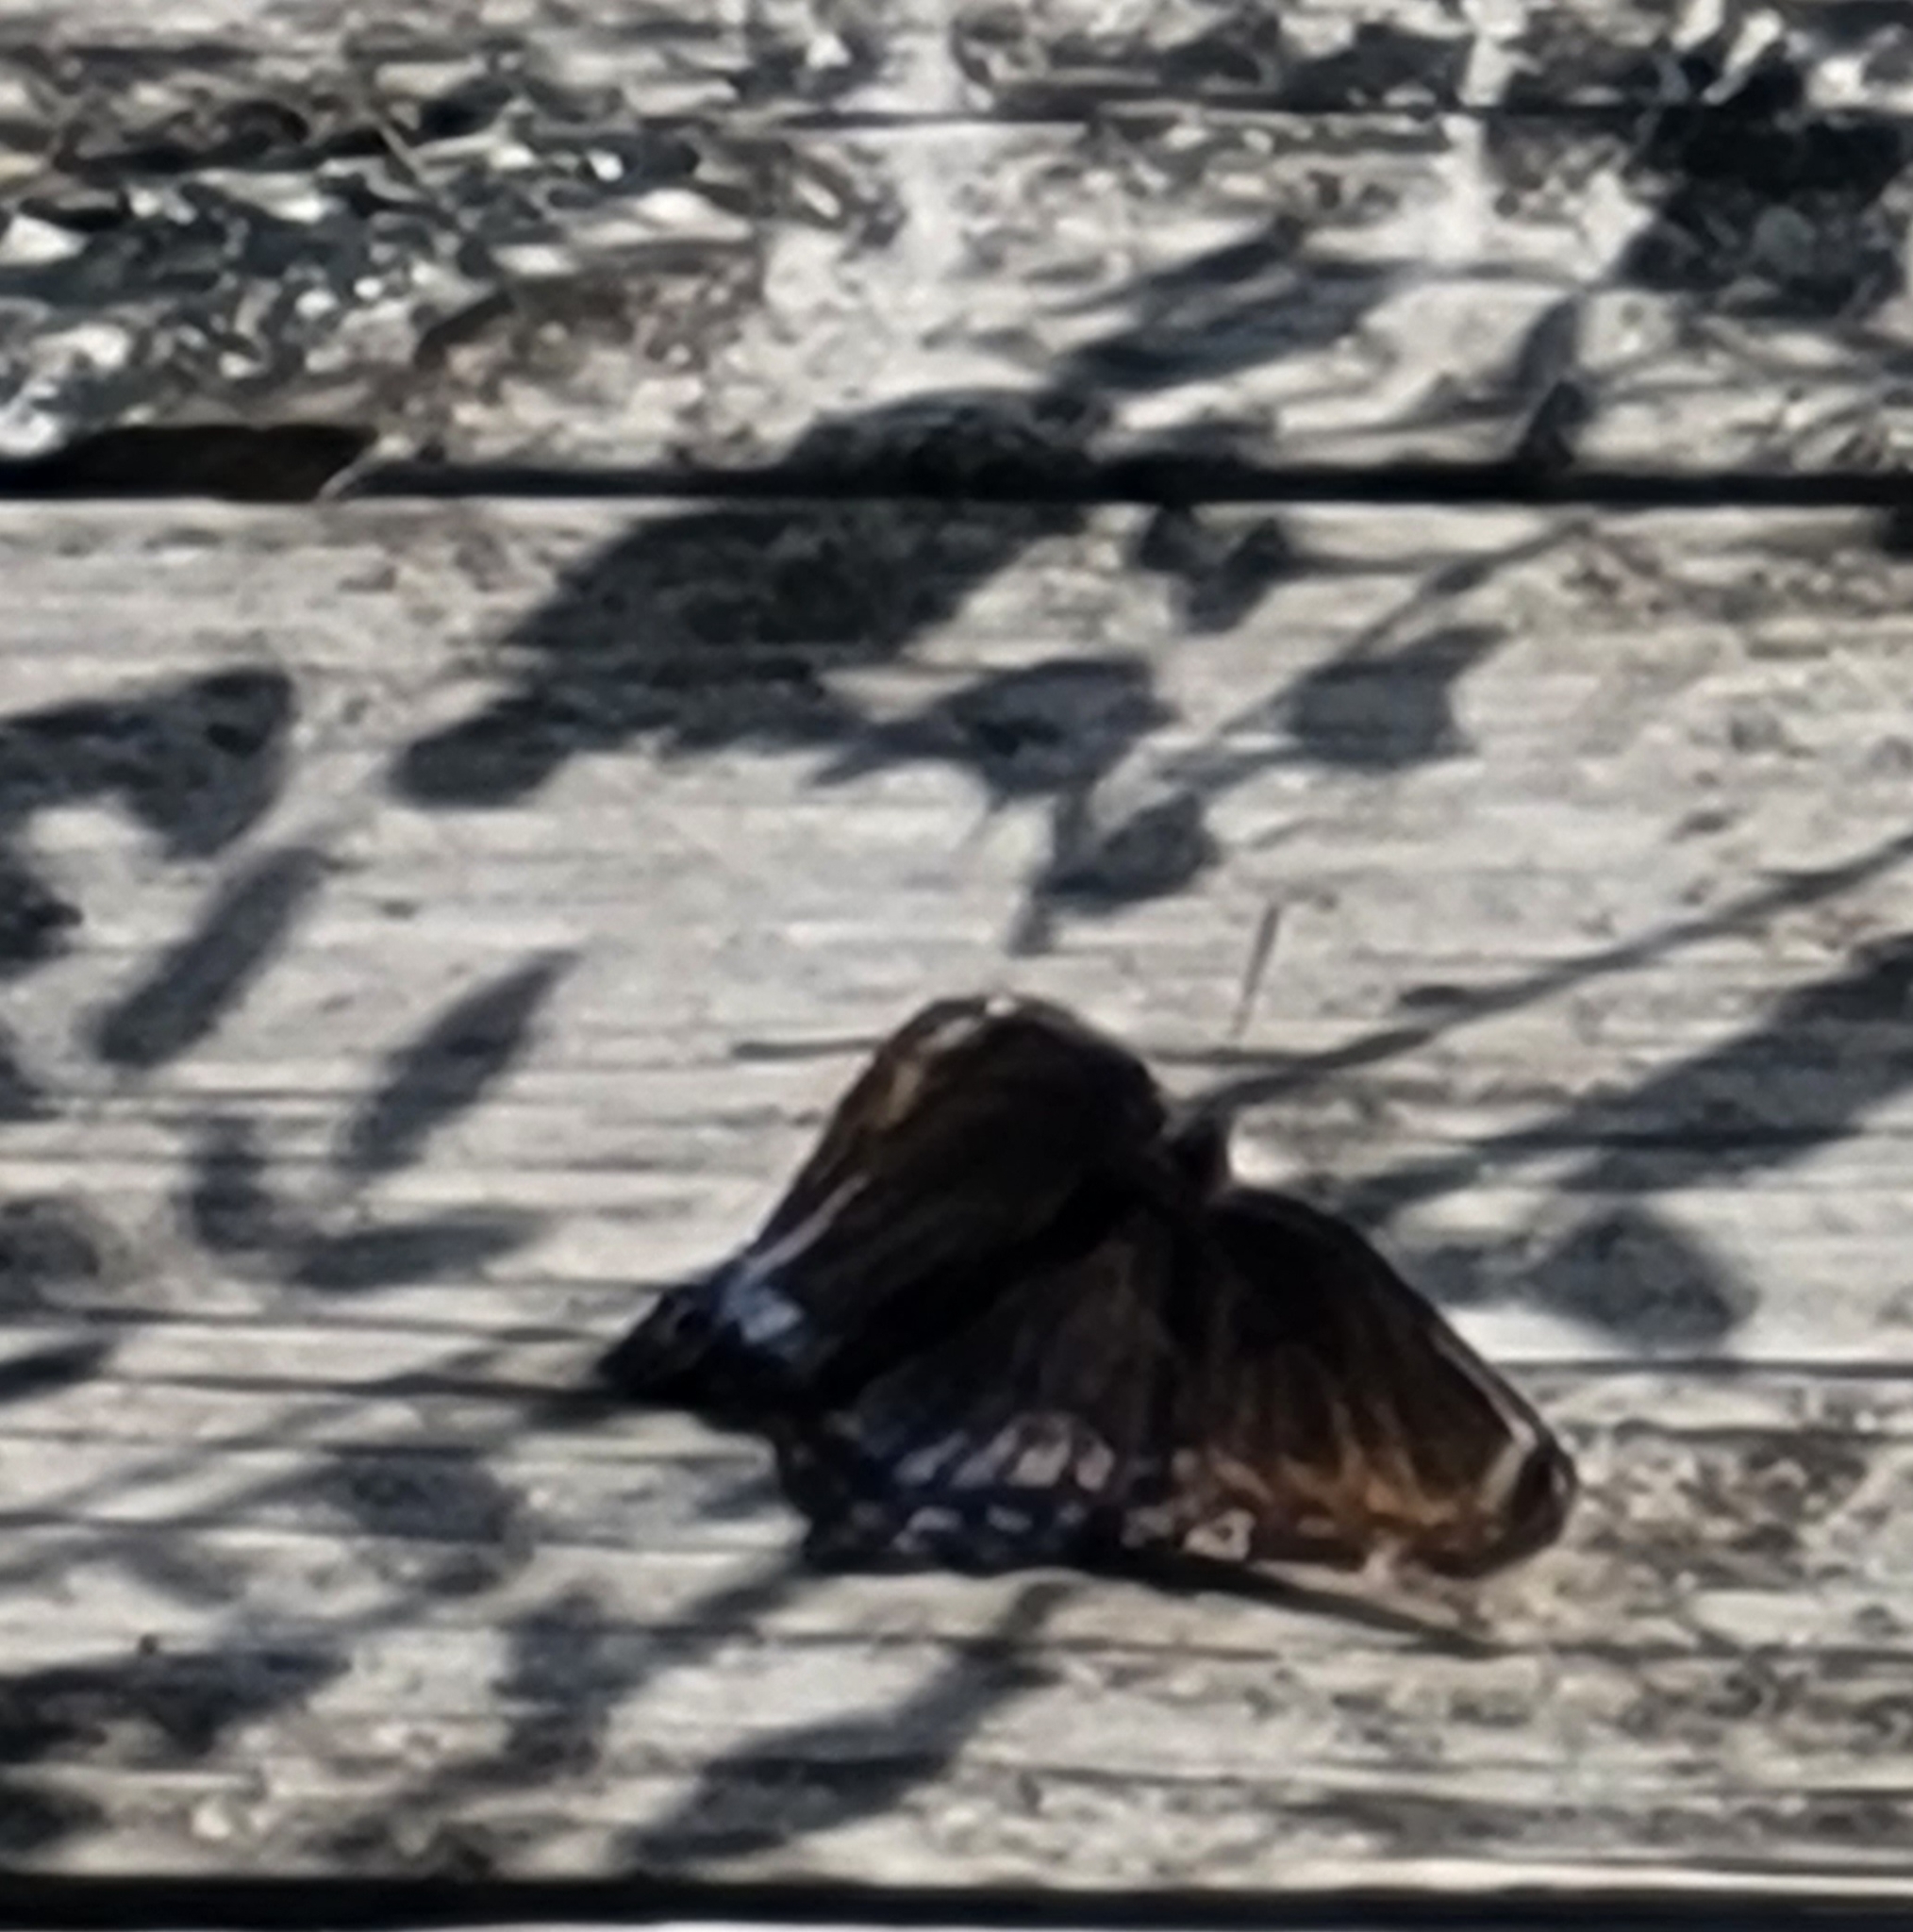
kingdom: Animalia
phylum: Arthropoda
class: Insecta
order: Lepidoptera
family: Nymphalidae
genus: Limenitis
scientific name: Limenitis astyanax
